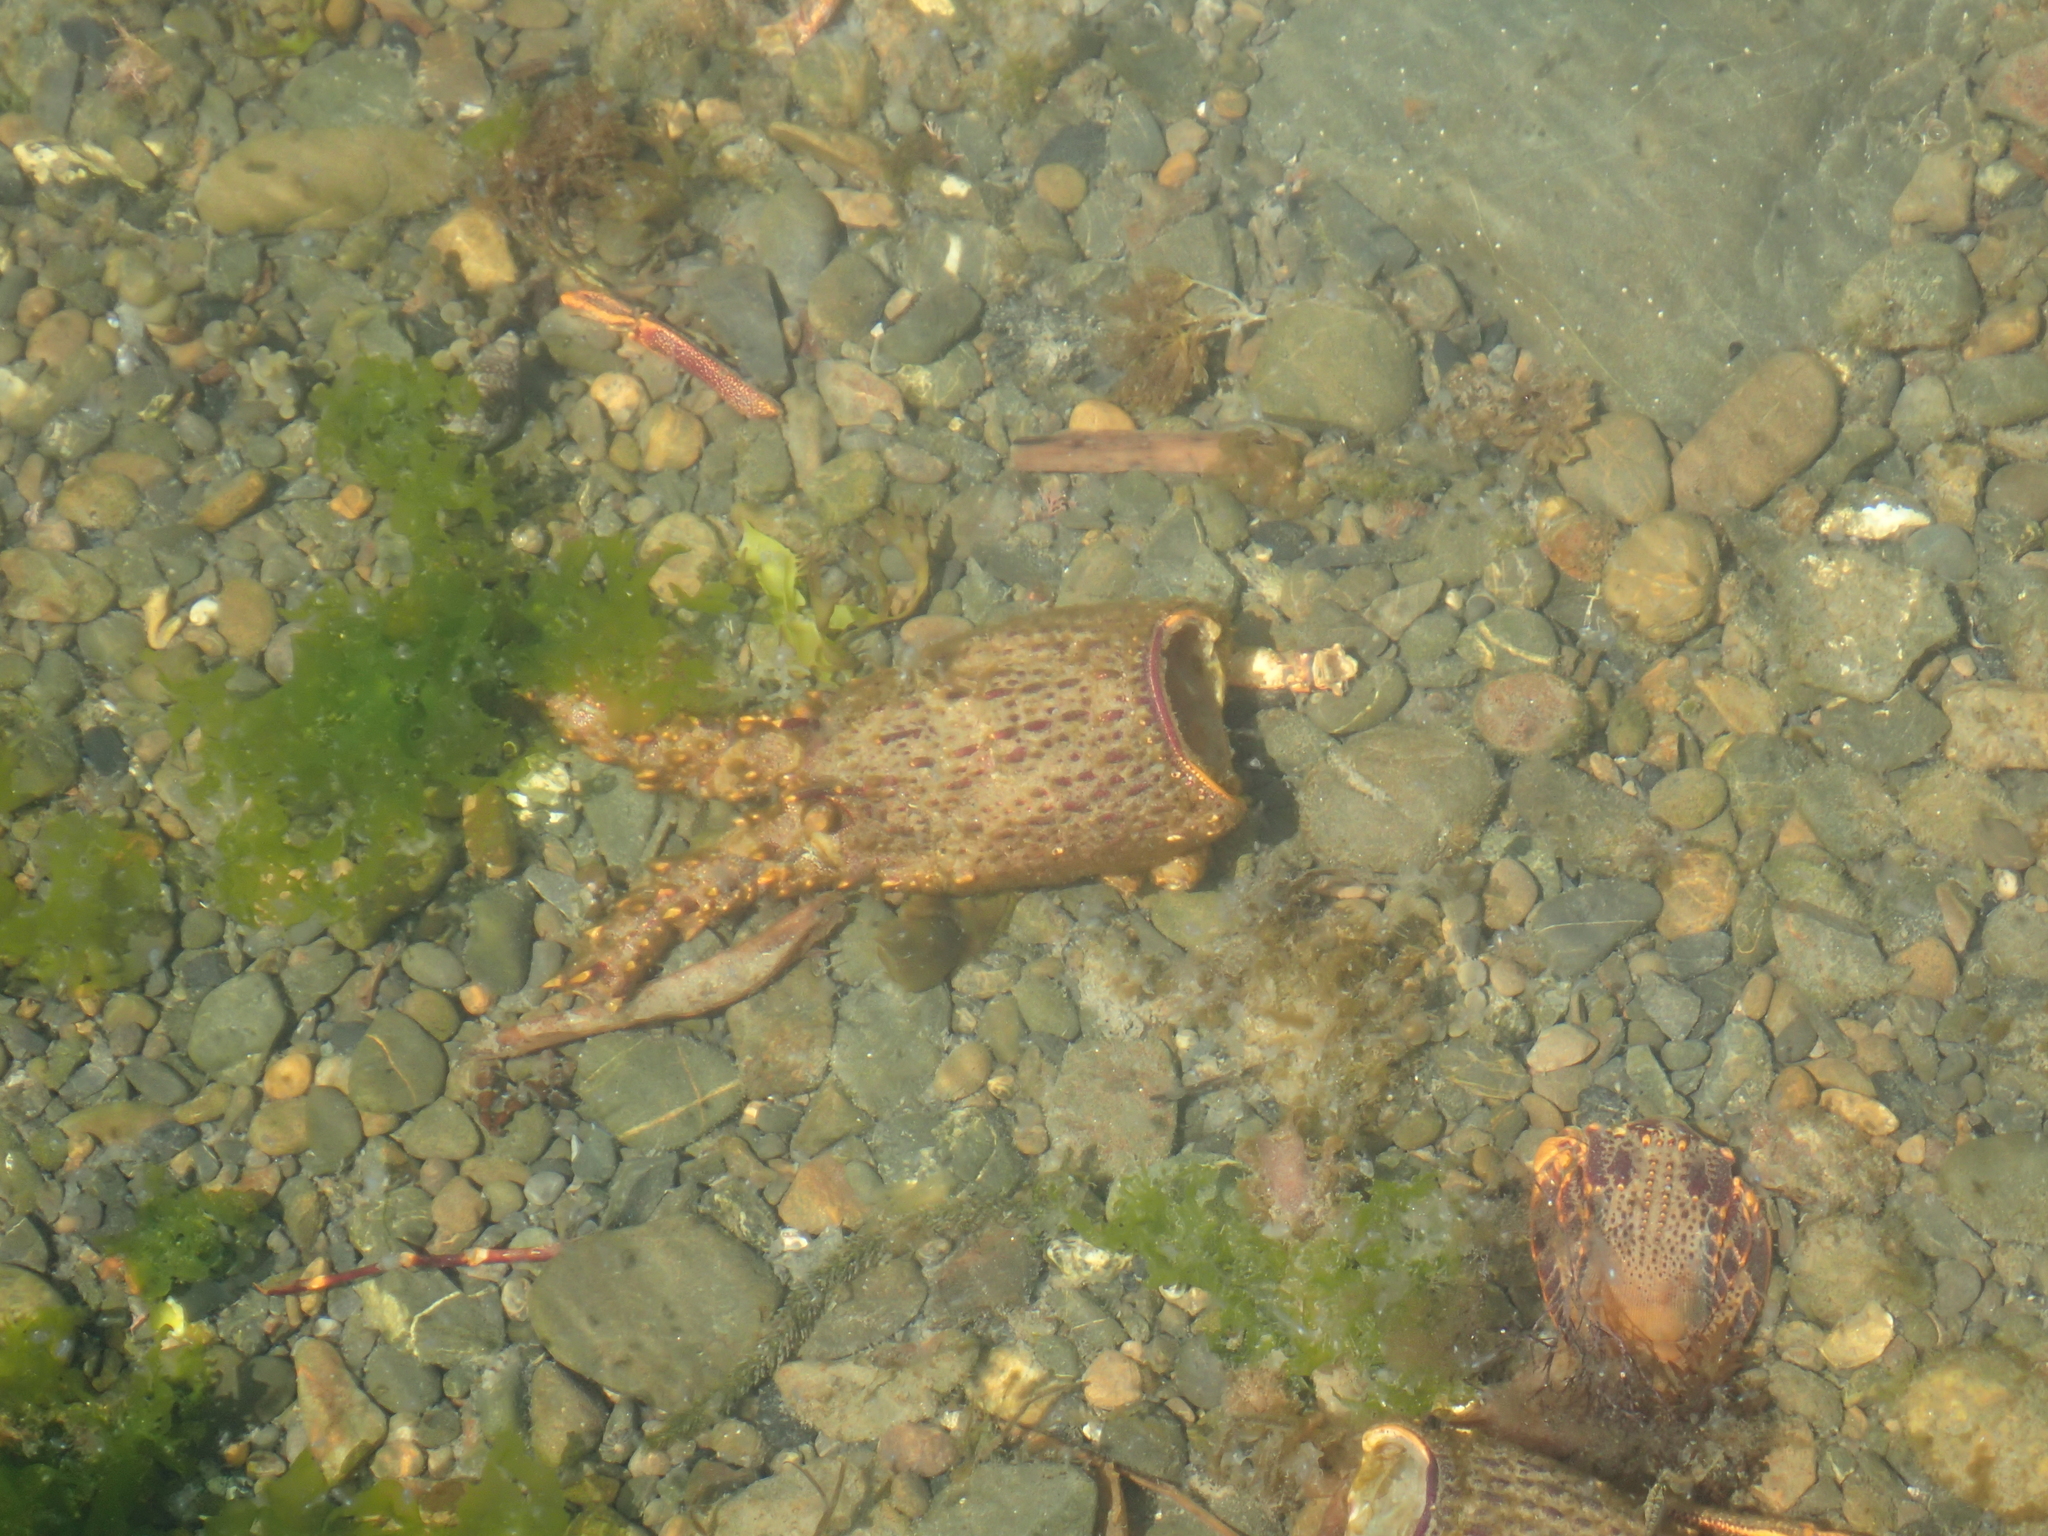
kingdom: Animalia
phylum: Arthropoda
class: Malacostraca
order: Decapoda
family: Palinuridae
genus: Jasus
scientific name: Jasus edwardsii
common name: Red rock lobster
